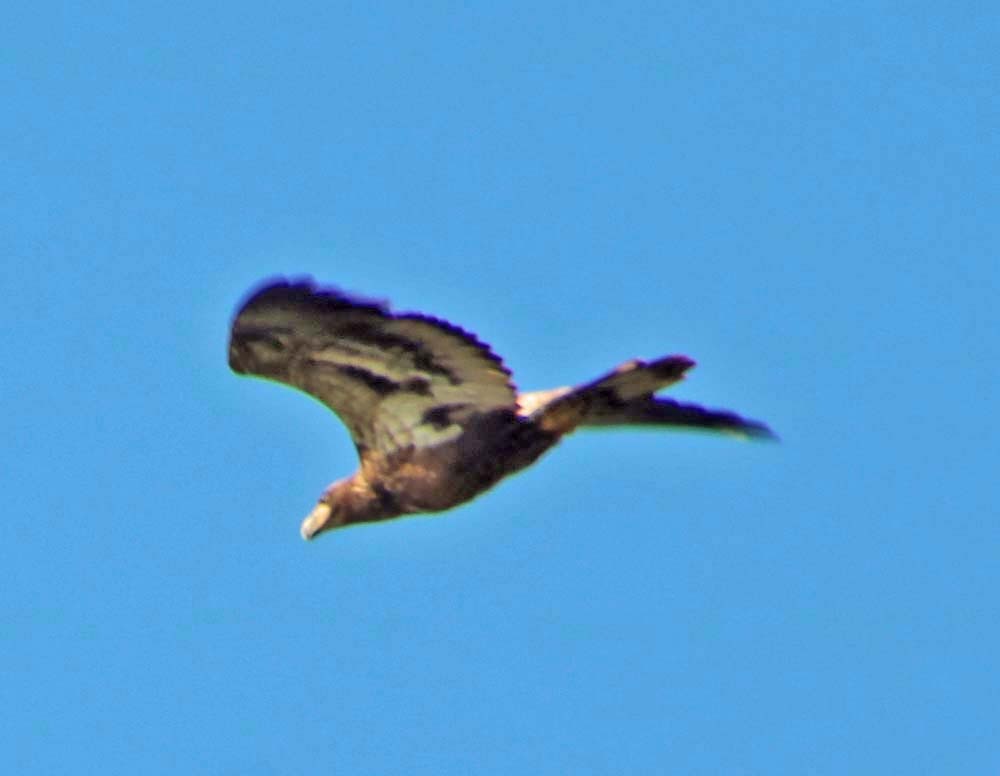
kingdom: Animalia
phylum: Chordata
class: Aves
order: Accipitriformes
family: Accipitridae
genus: Haliaeetus
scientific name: Haliaeetus leucocephalus
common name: Bald eagle
